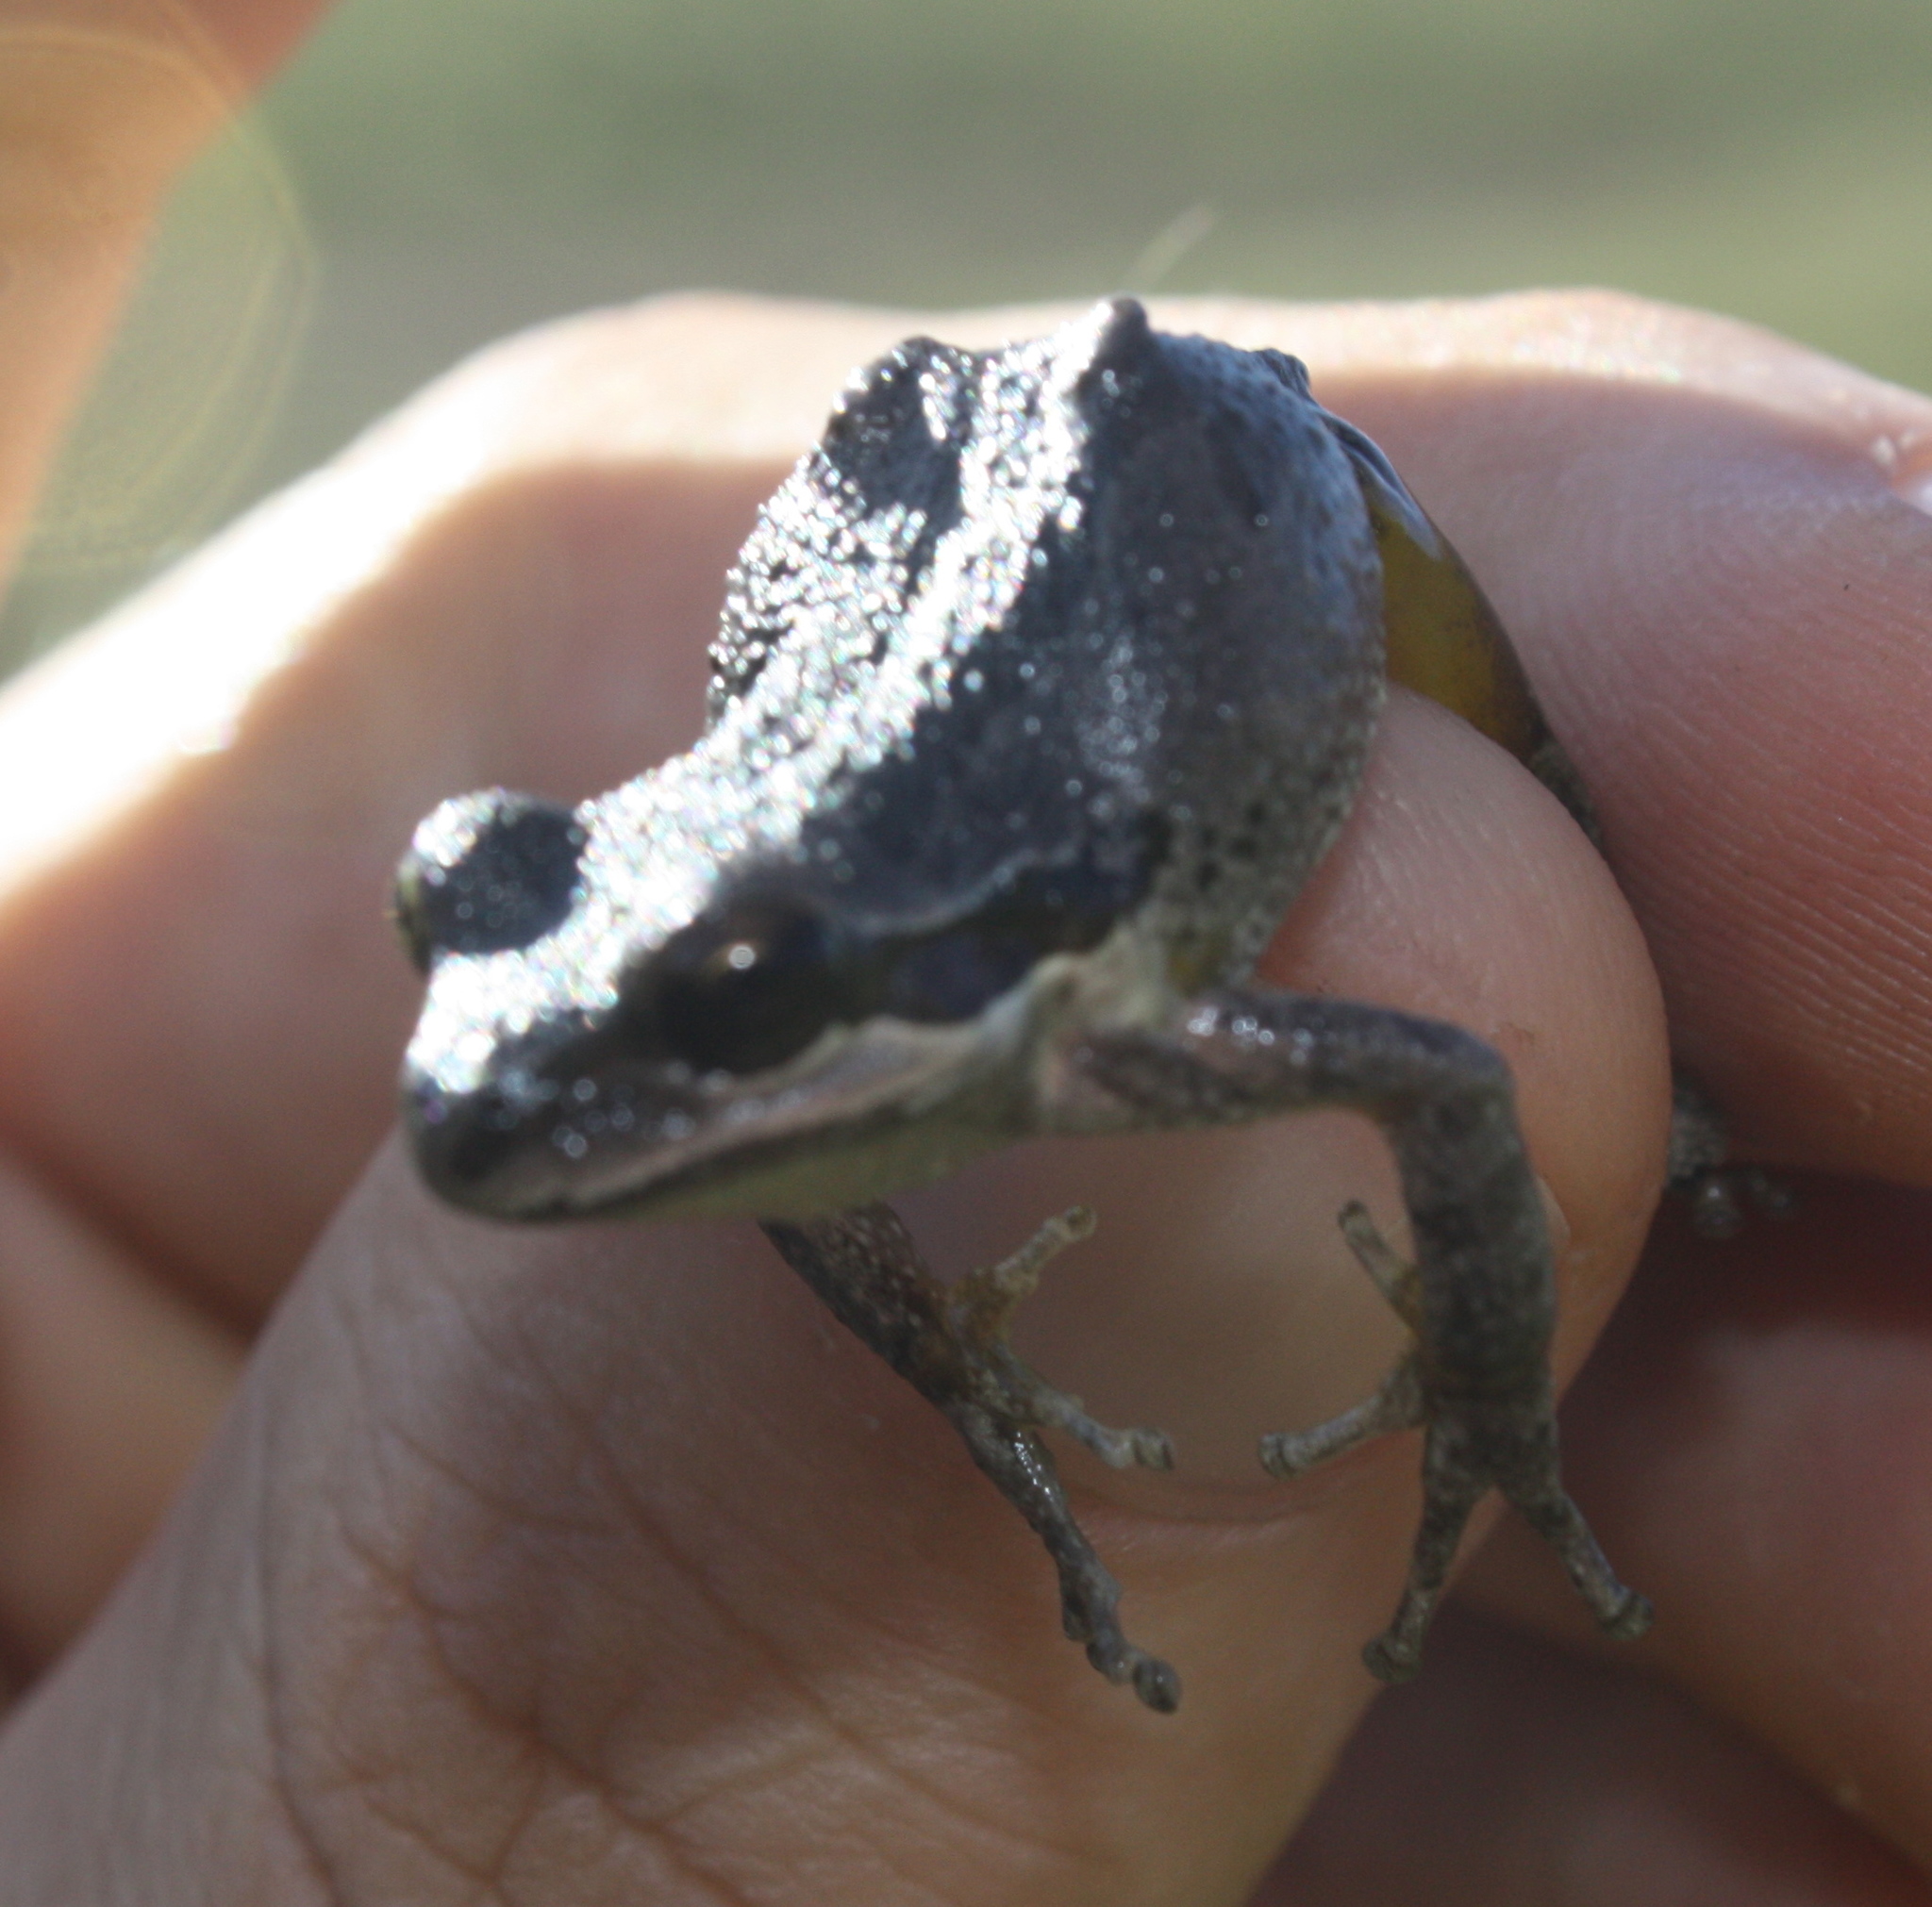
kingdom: Animalia
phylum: Chordata
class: Amphibia
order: Anura
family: Hylidae
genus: Pseudacris
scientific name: Pseudacris regilla
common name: Pacific chorus frog
